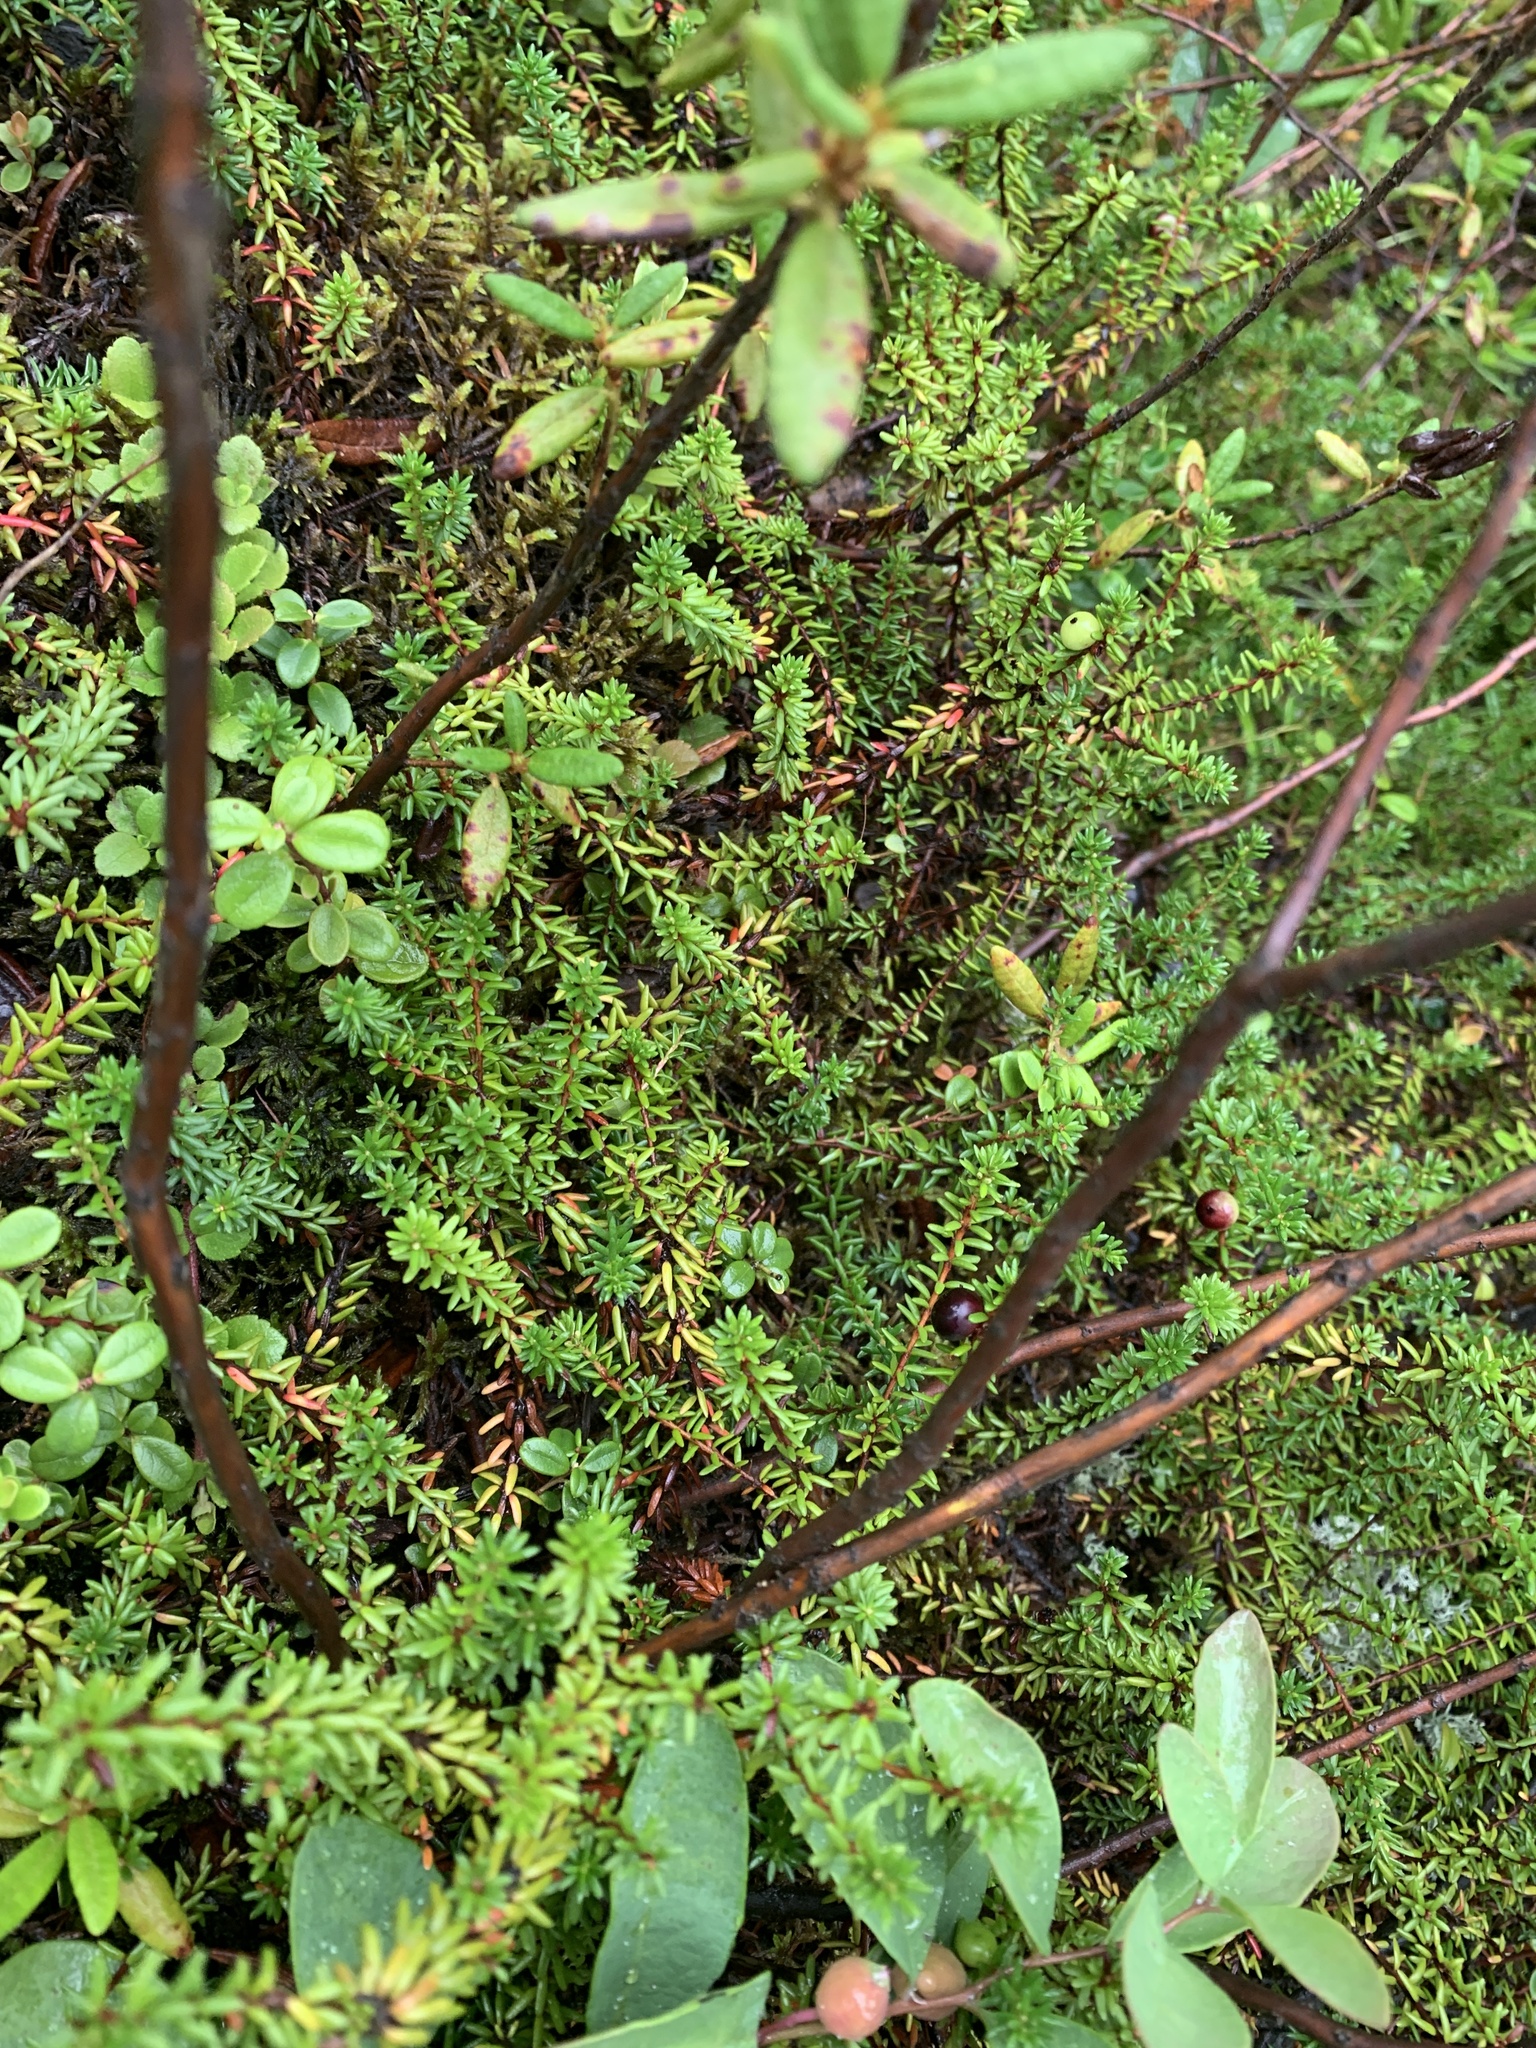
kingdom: Plantae
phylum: Tracheophyta
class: Magnoliopsida
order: Ericales
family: Ericaceae
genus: Empetrum
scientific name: Empetrum nigrum
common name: Black crowberry
